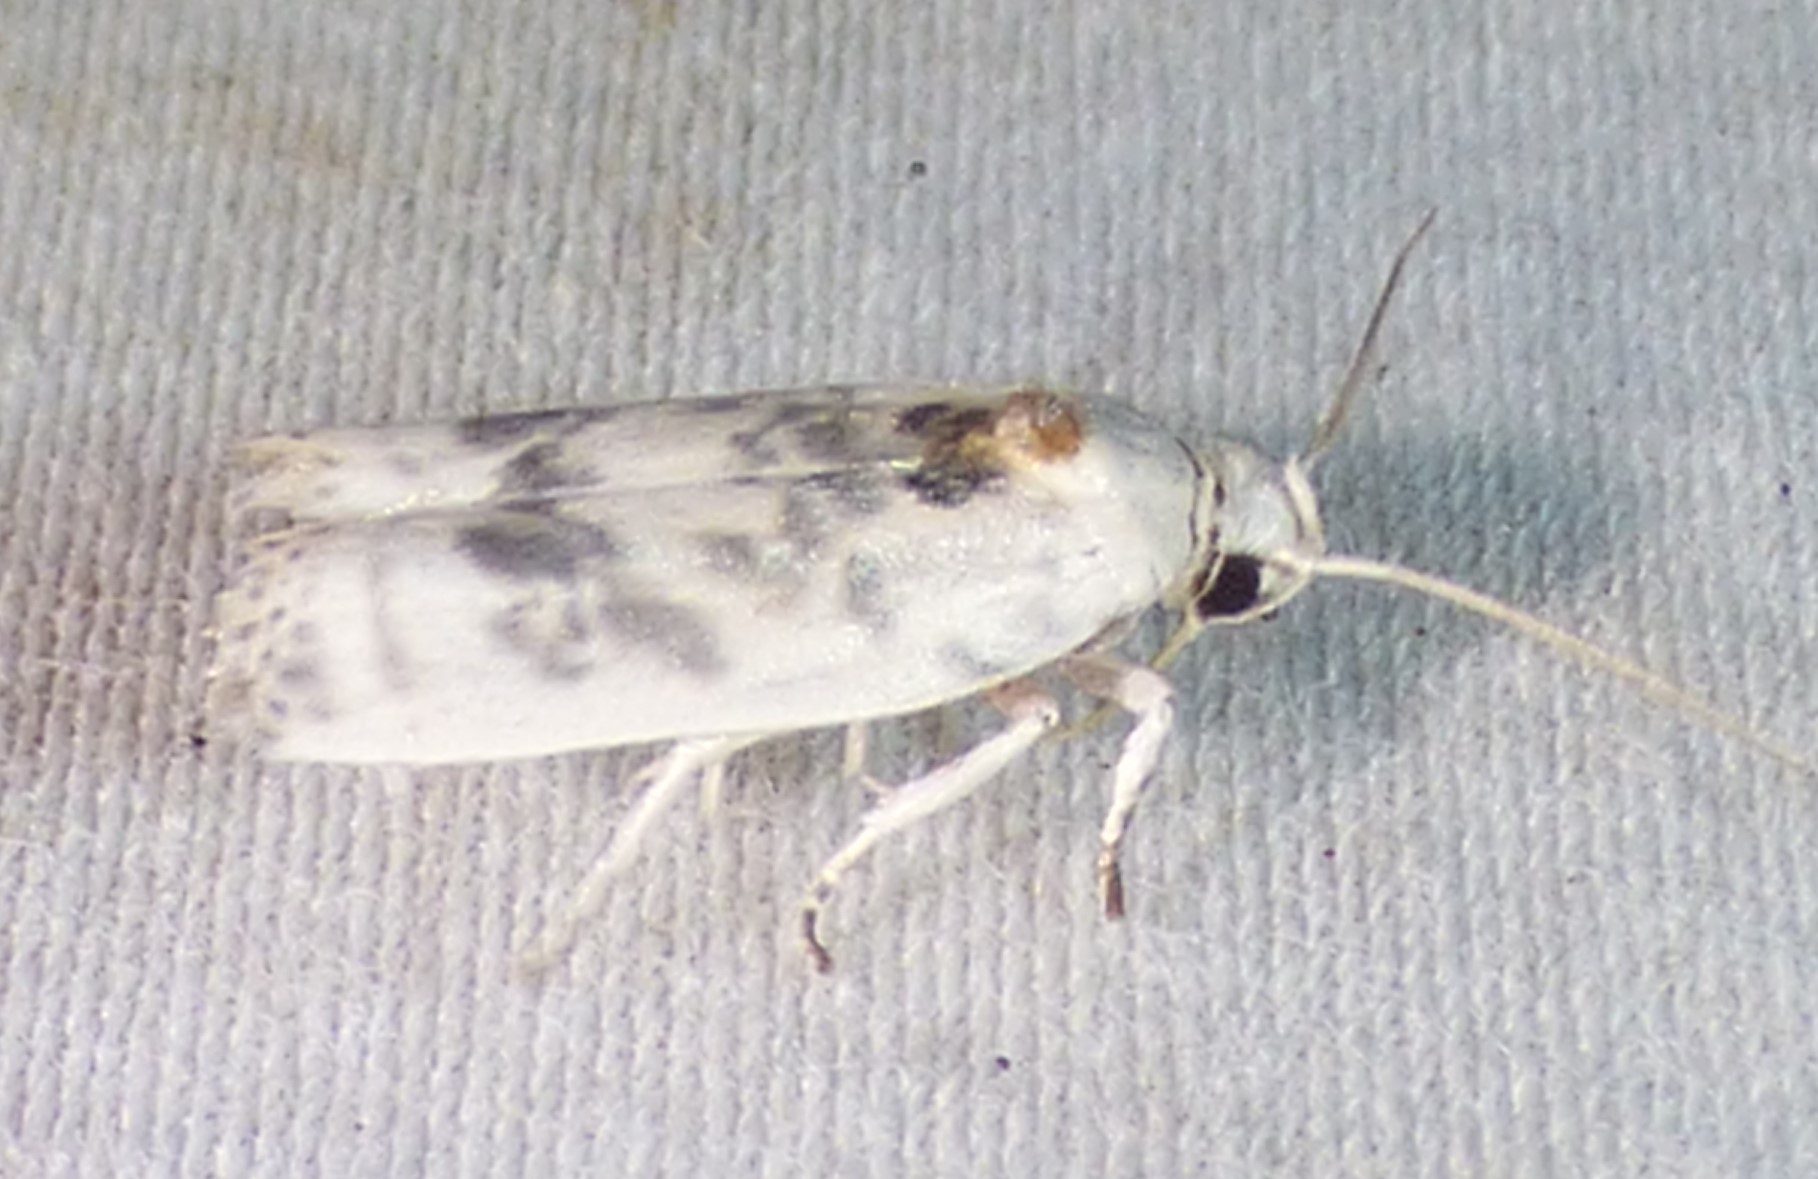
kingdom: Animalia
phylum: Arthropoda
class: Insecta
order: Lepidoptera
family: Depressariidae
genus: Antaeotricha
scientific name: Antaeotricha leucillana
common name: Pale gray bird-dropping moth
